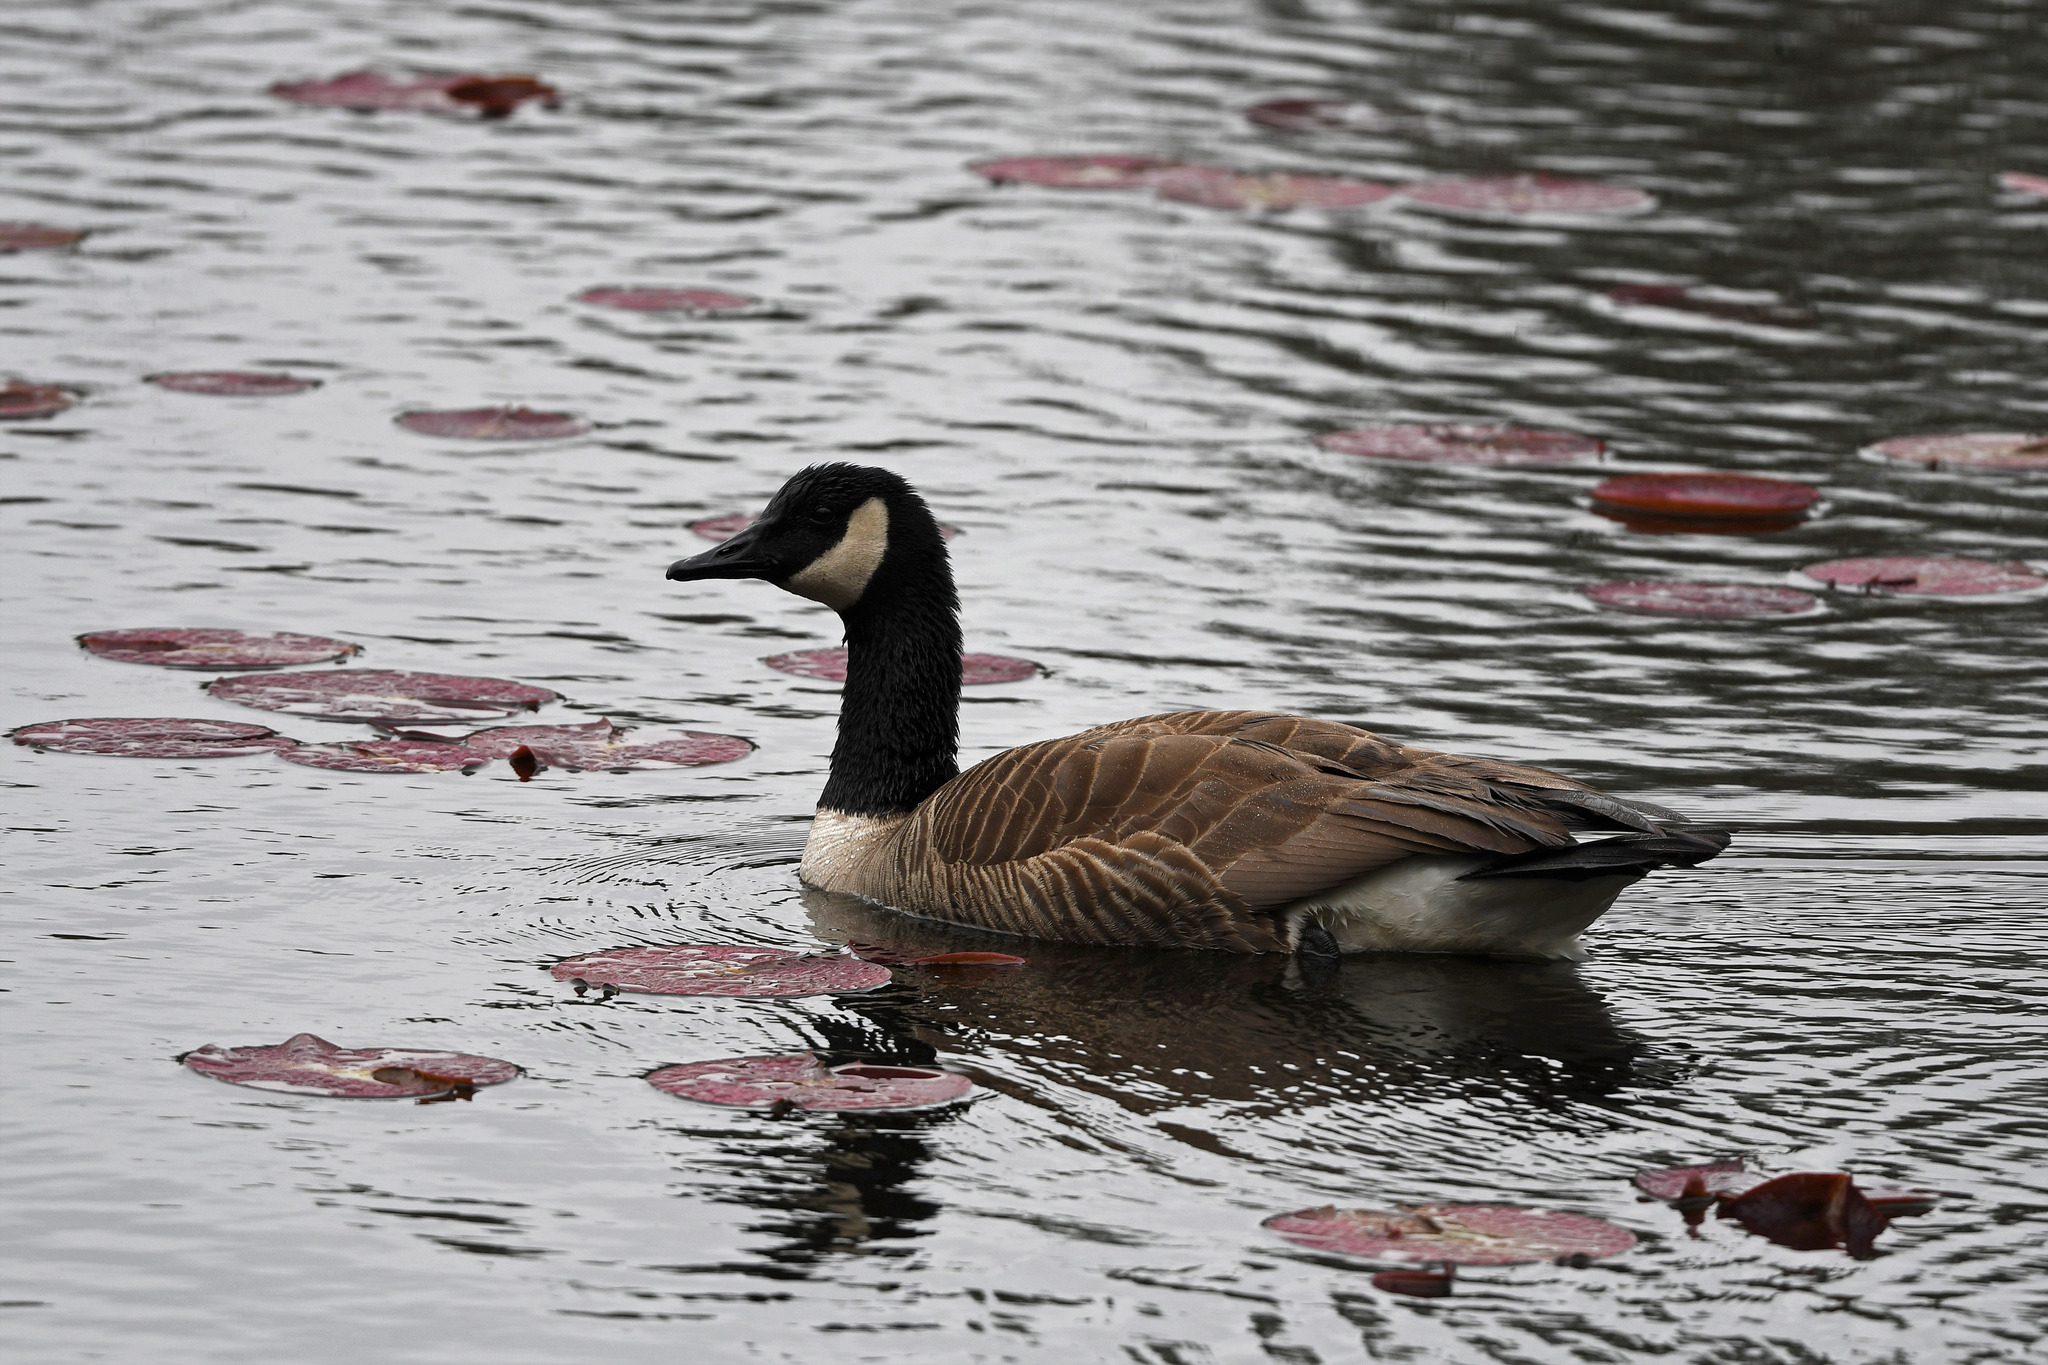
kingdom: Animalia
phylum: Chordata
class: Aves
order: Anseriformes
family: Anatidae
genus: Branta
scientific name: Branta canadensis
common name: Canada goose
